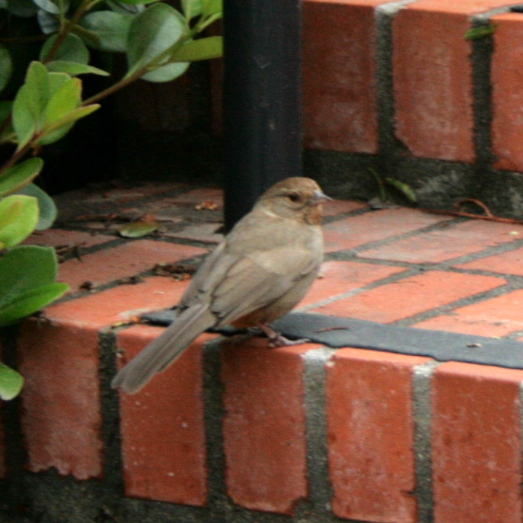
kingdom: Animalia
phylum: Chordata
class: Aves
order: Passeriformes
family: Passerellidae
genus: Melozone
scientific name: Melozone crissalis
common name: California towhee
